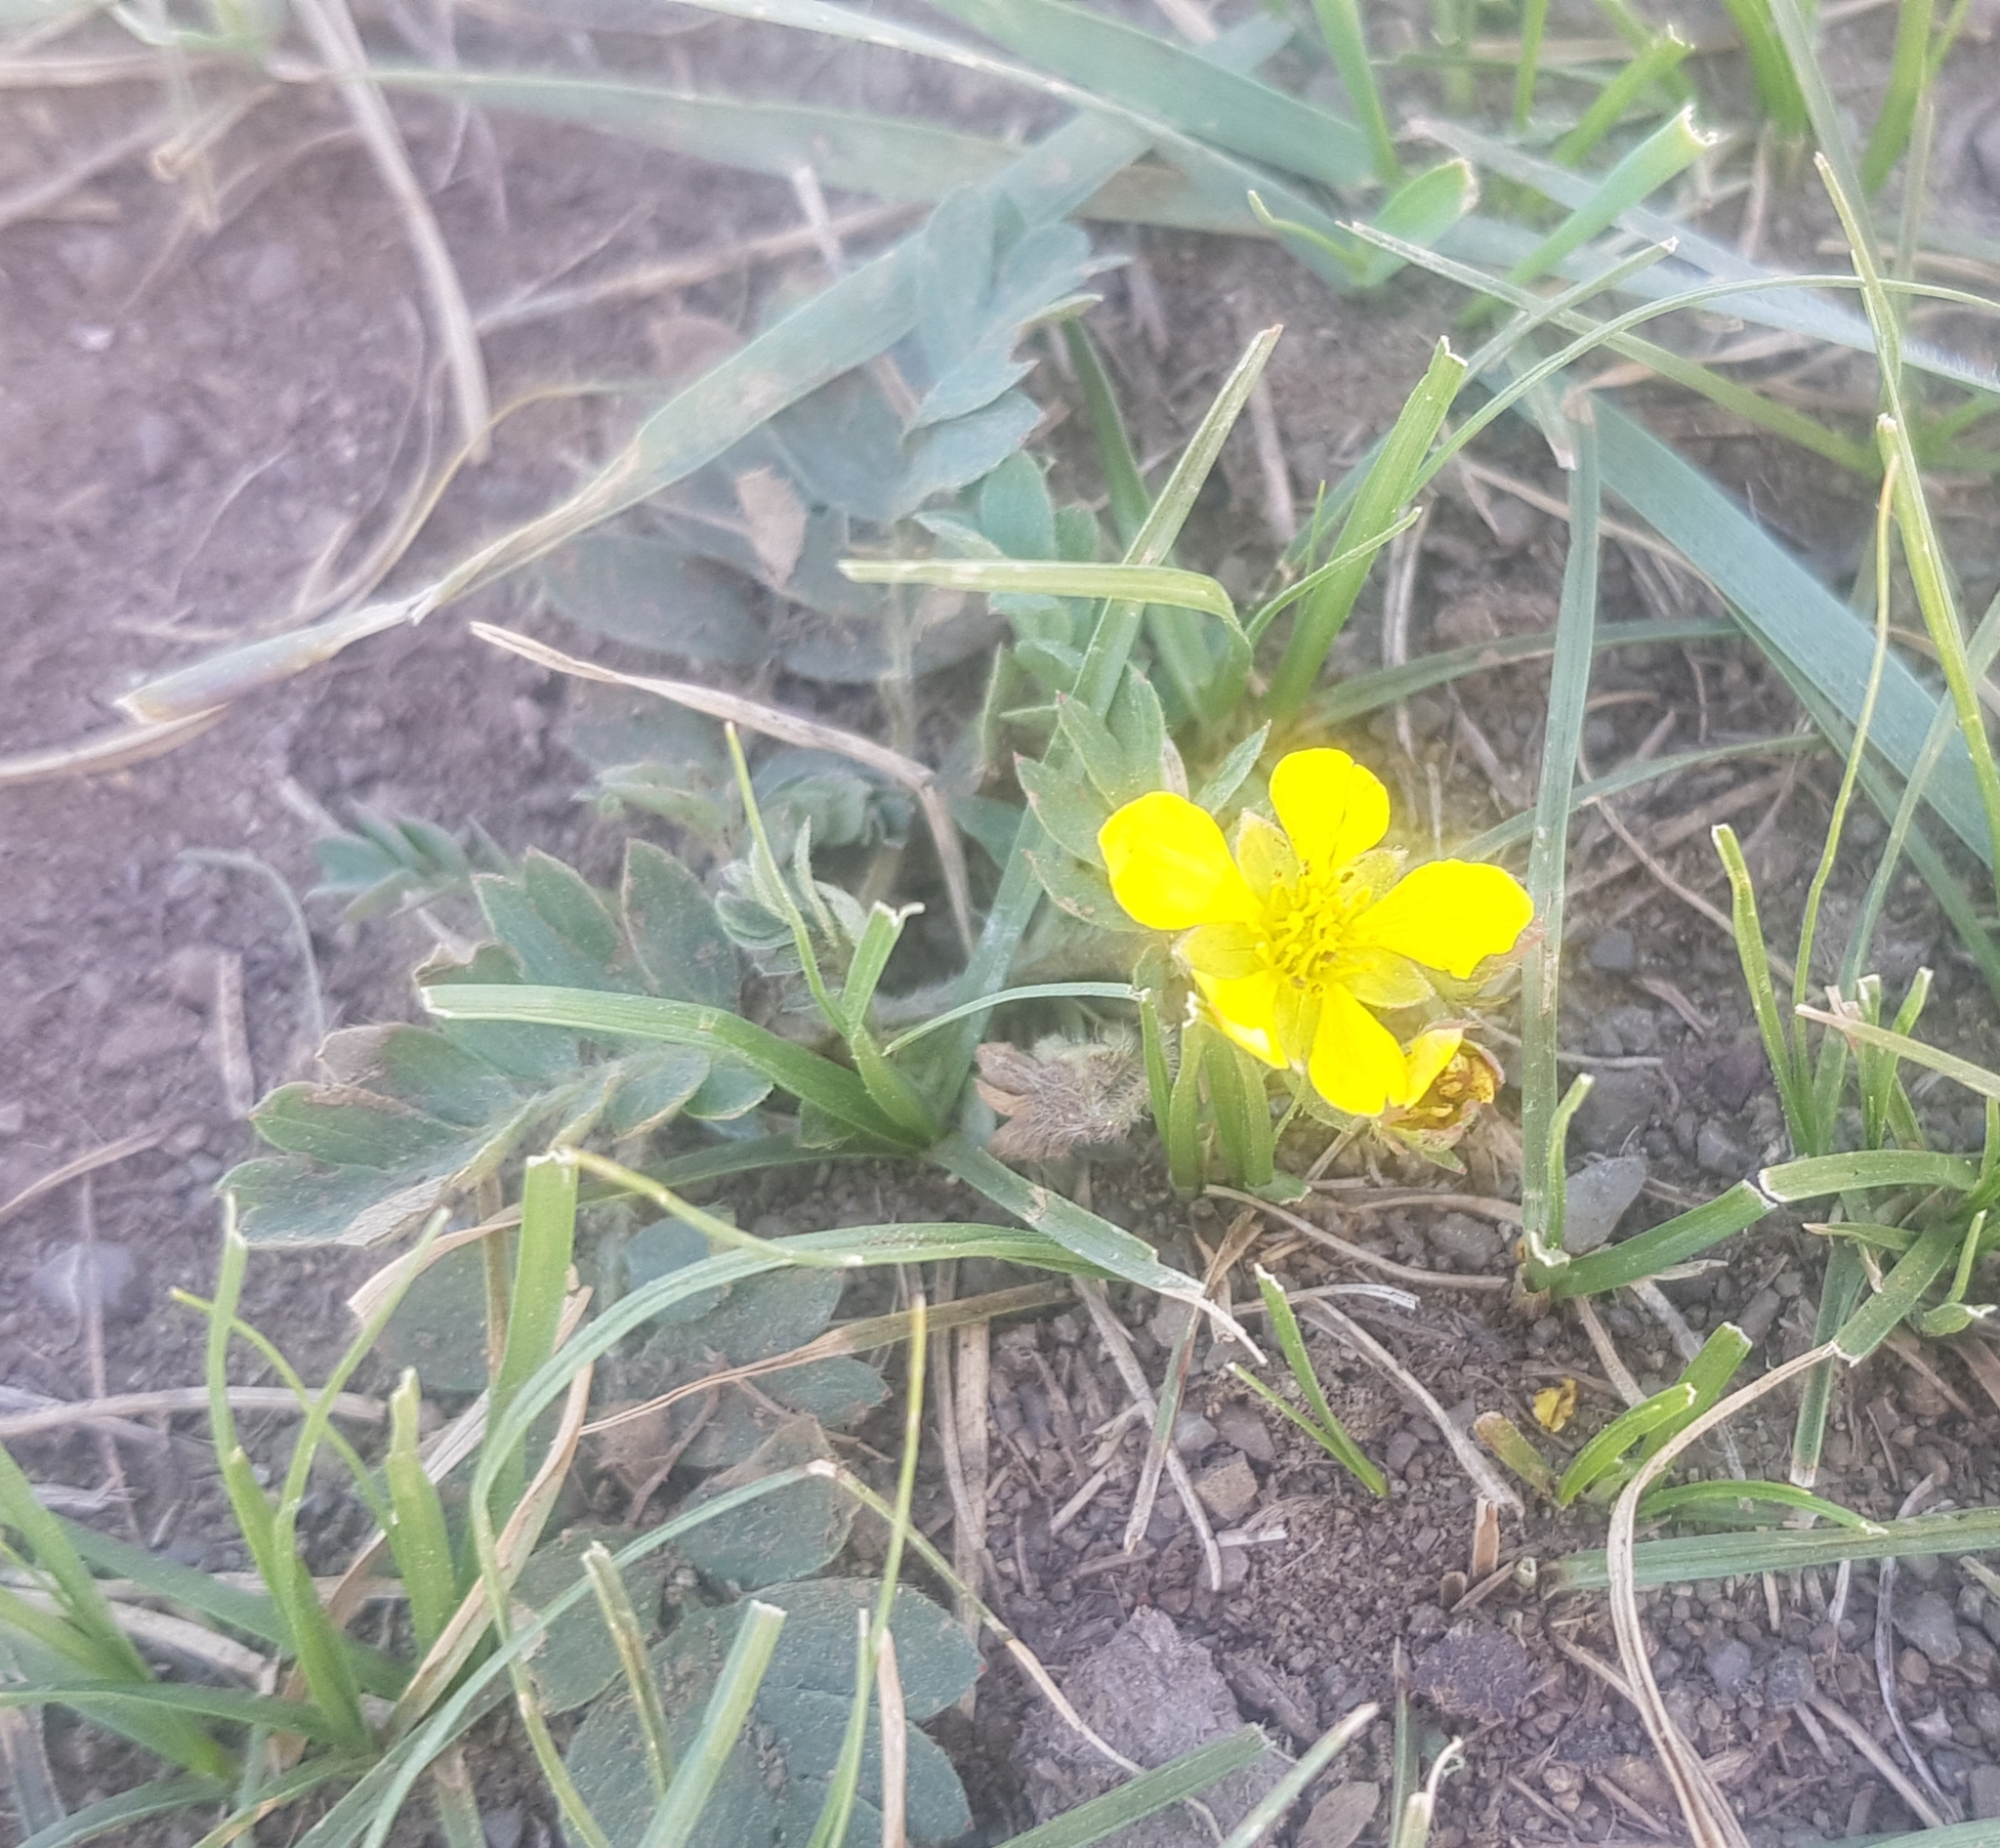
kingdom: Plantae
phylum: Tracheophyta
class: Magnoliopsida
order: Rosales
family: Rosaceae
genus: Sibbaldianthe
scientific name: Sibbaldianthe bifurca
